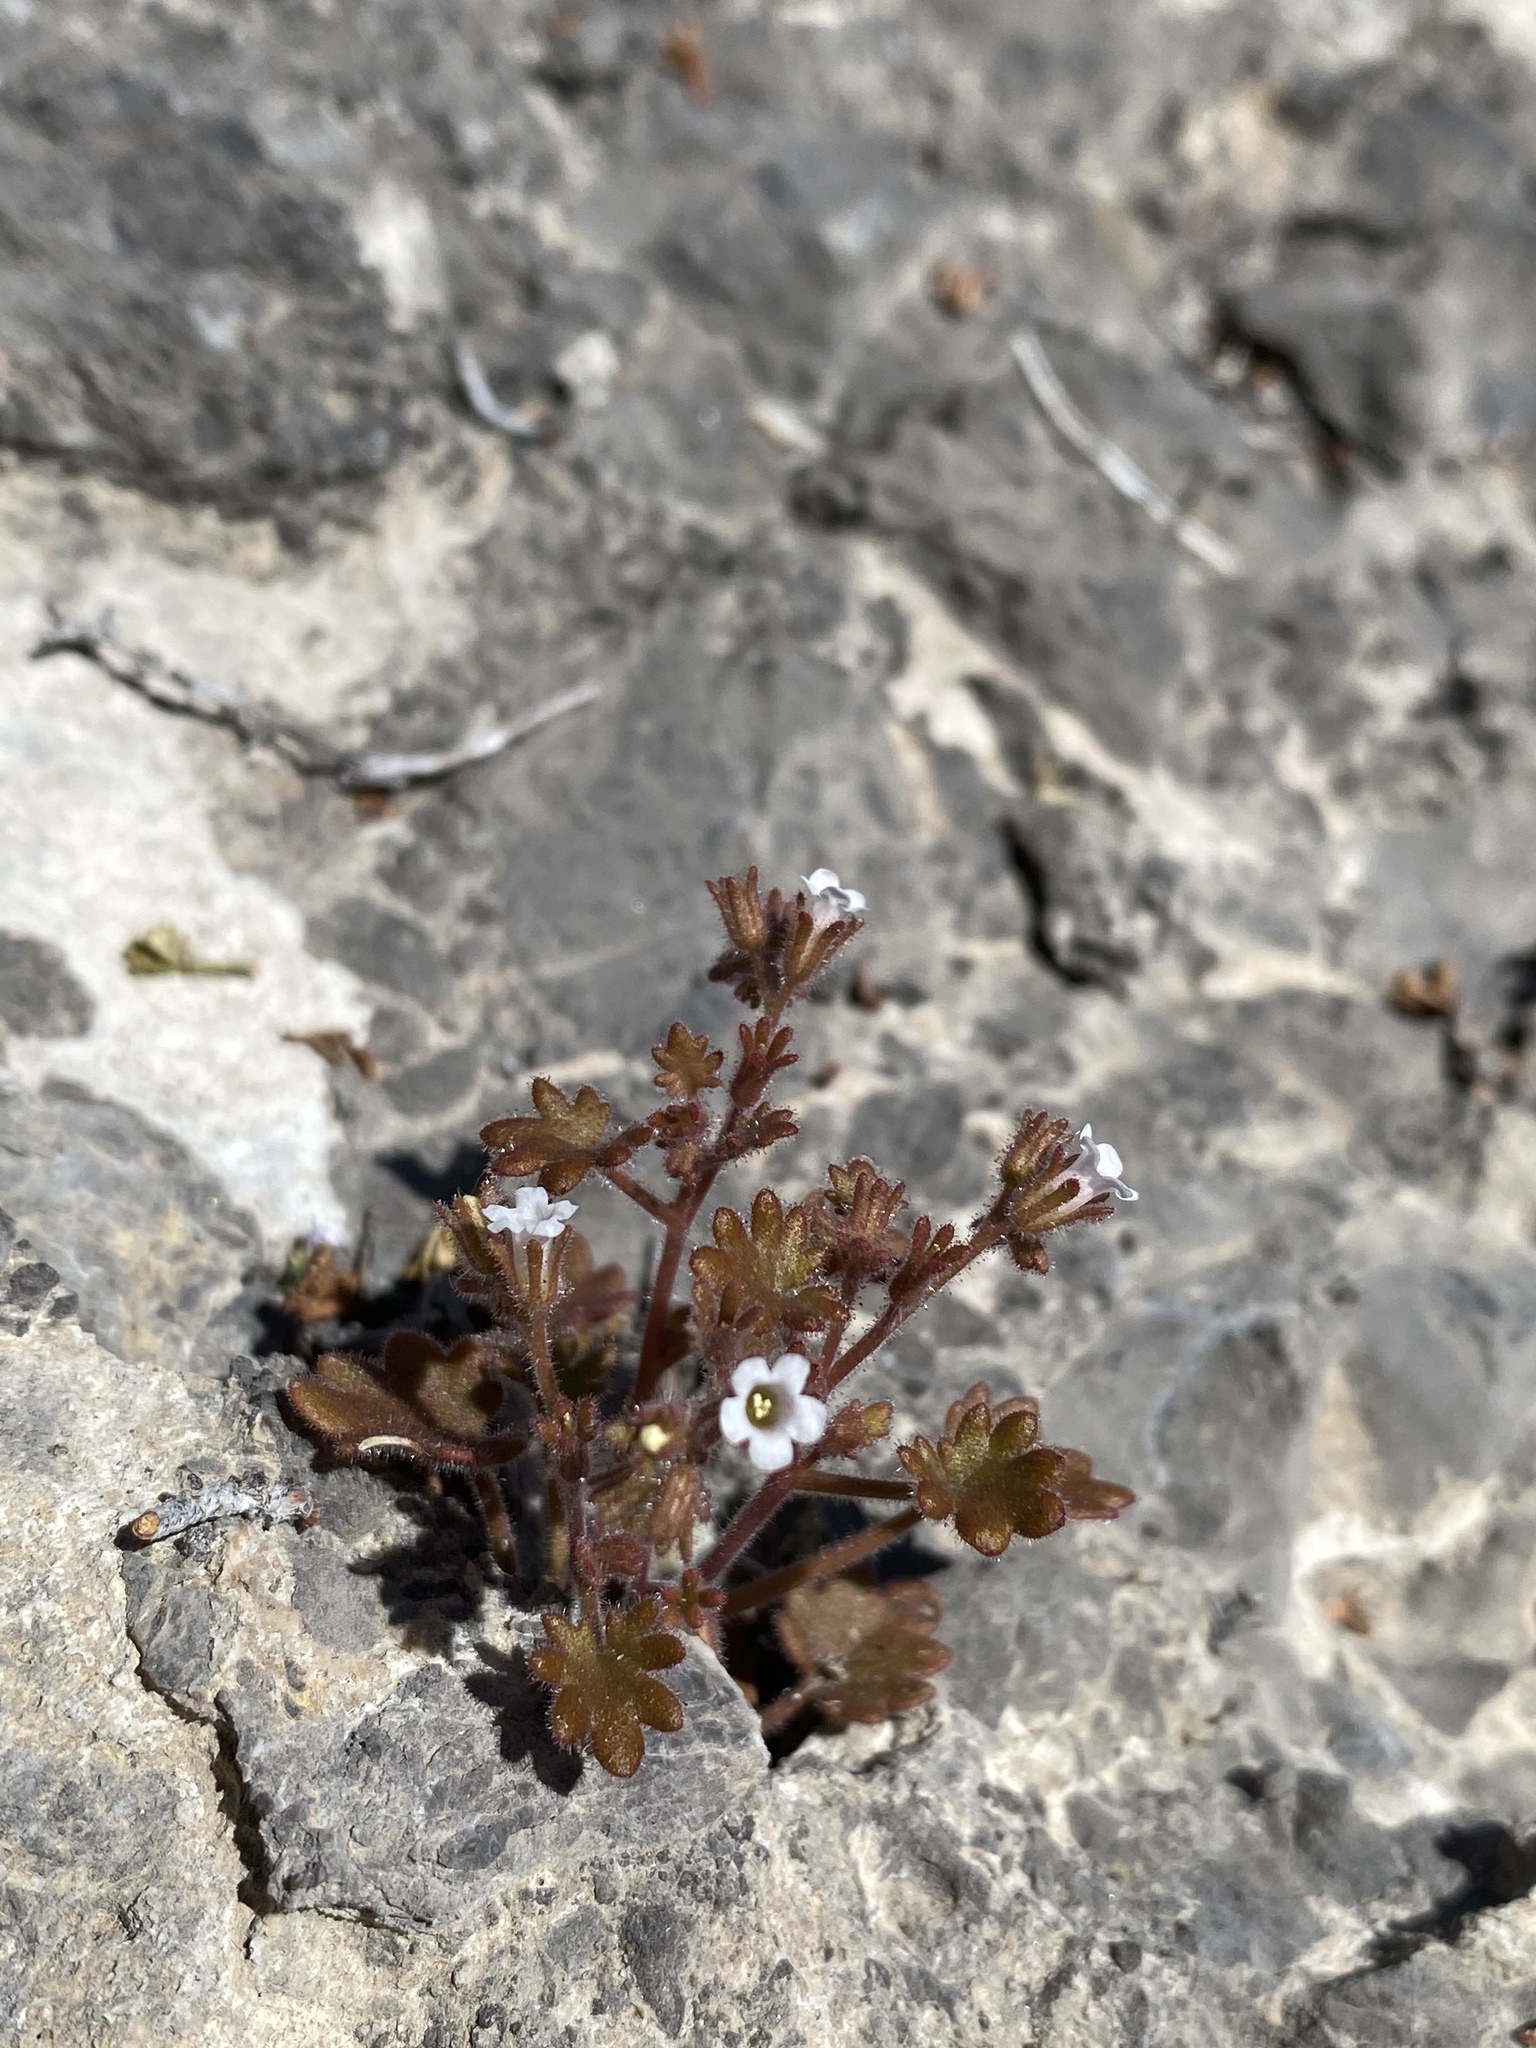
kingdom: Plantae
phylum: Tracheophyta
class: Magnoliopsida
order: Boraginales
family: Hydrophyllaceae
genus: Phacelia
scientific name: Phacelia rotundifolia
